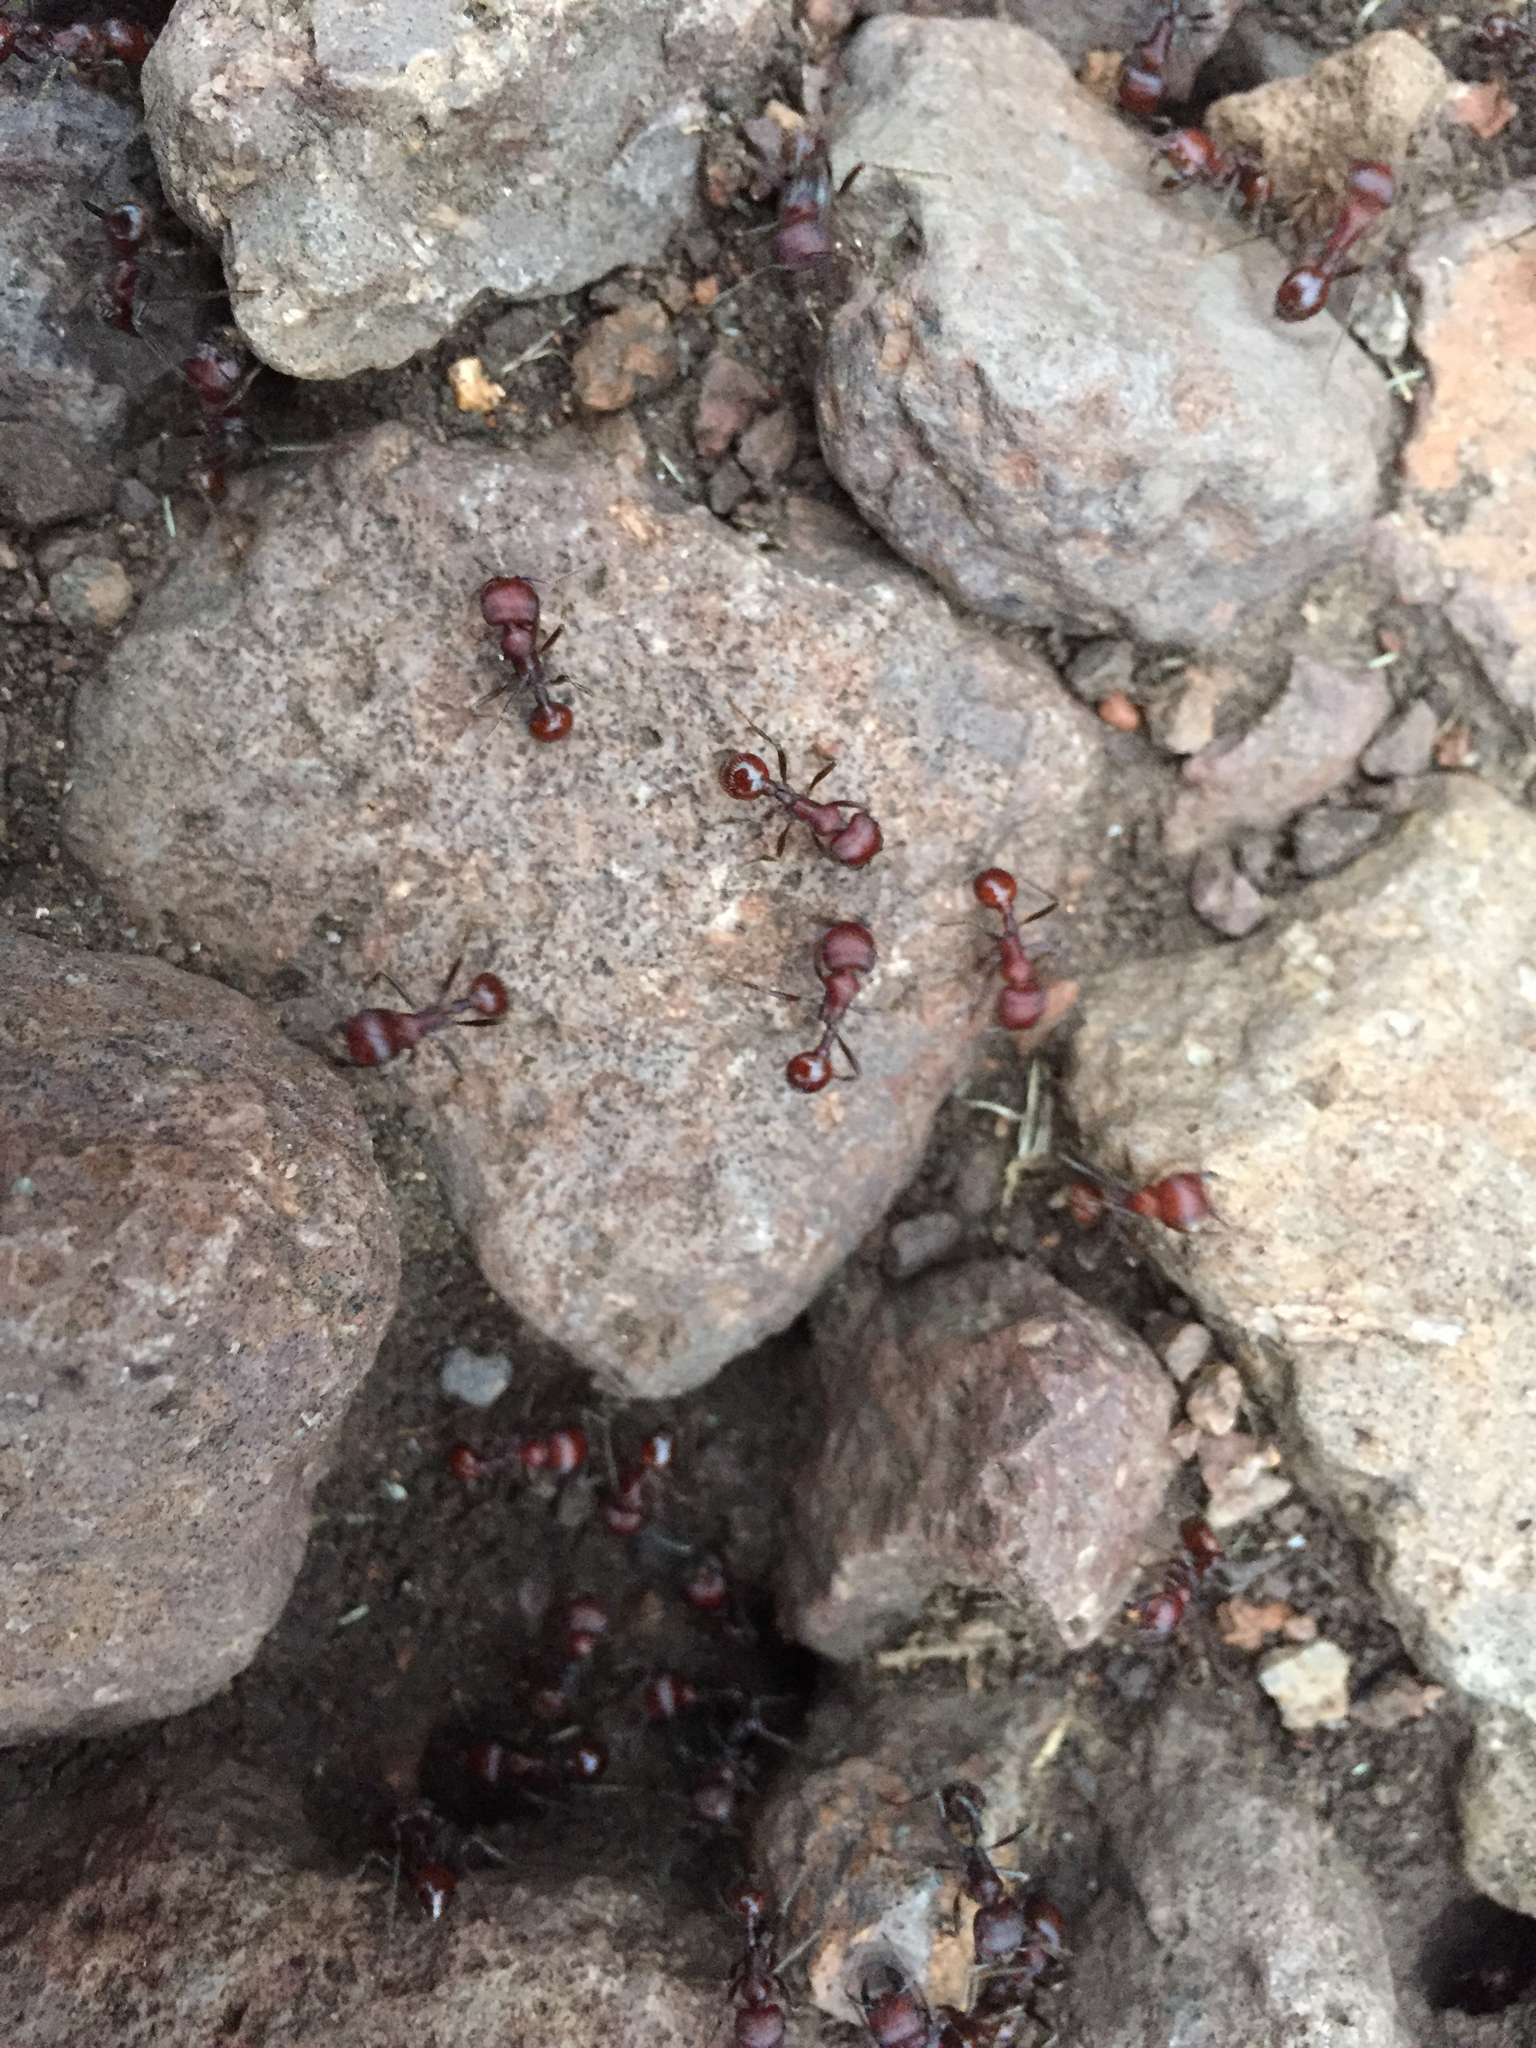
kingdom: Animalia
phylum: Arthropoda
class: Insecta
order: Hymenoptera
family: Formicidae
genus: Pogonomyrmex
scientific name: Pogonomyrmex
